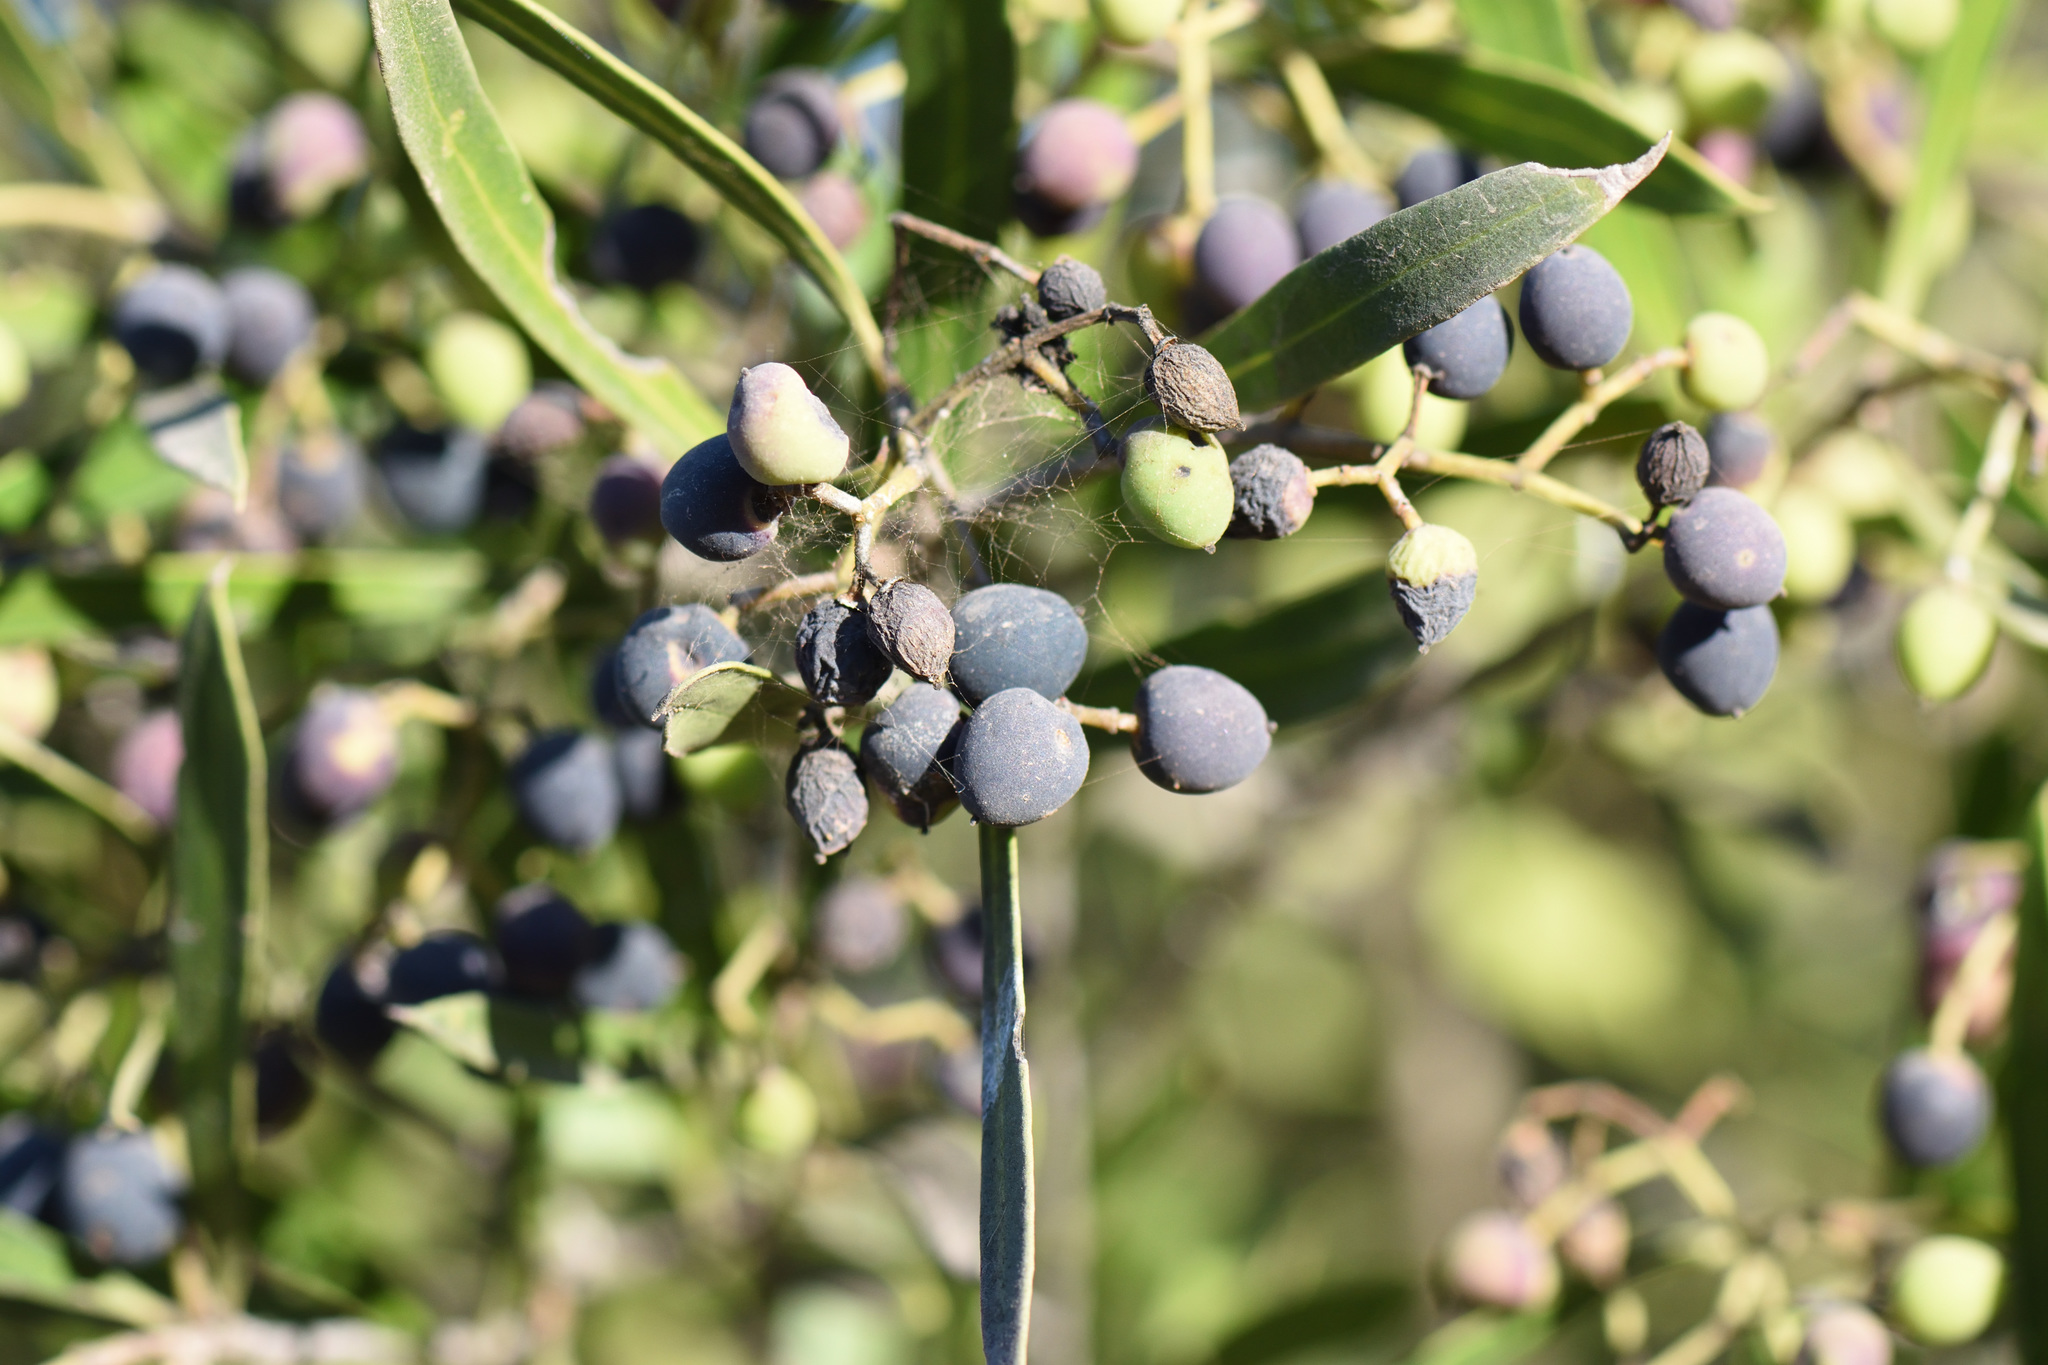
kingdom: Plantae
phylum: Tracheophyta
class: Magnoliopsida
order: Lamiales
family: Oleaceae
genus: Olea
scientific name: Olea exasperata
